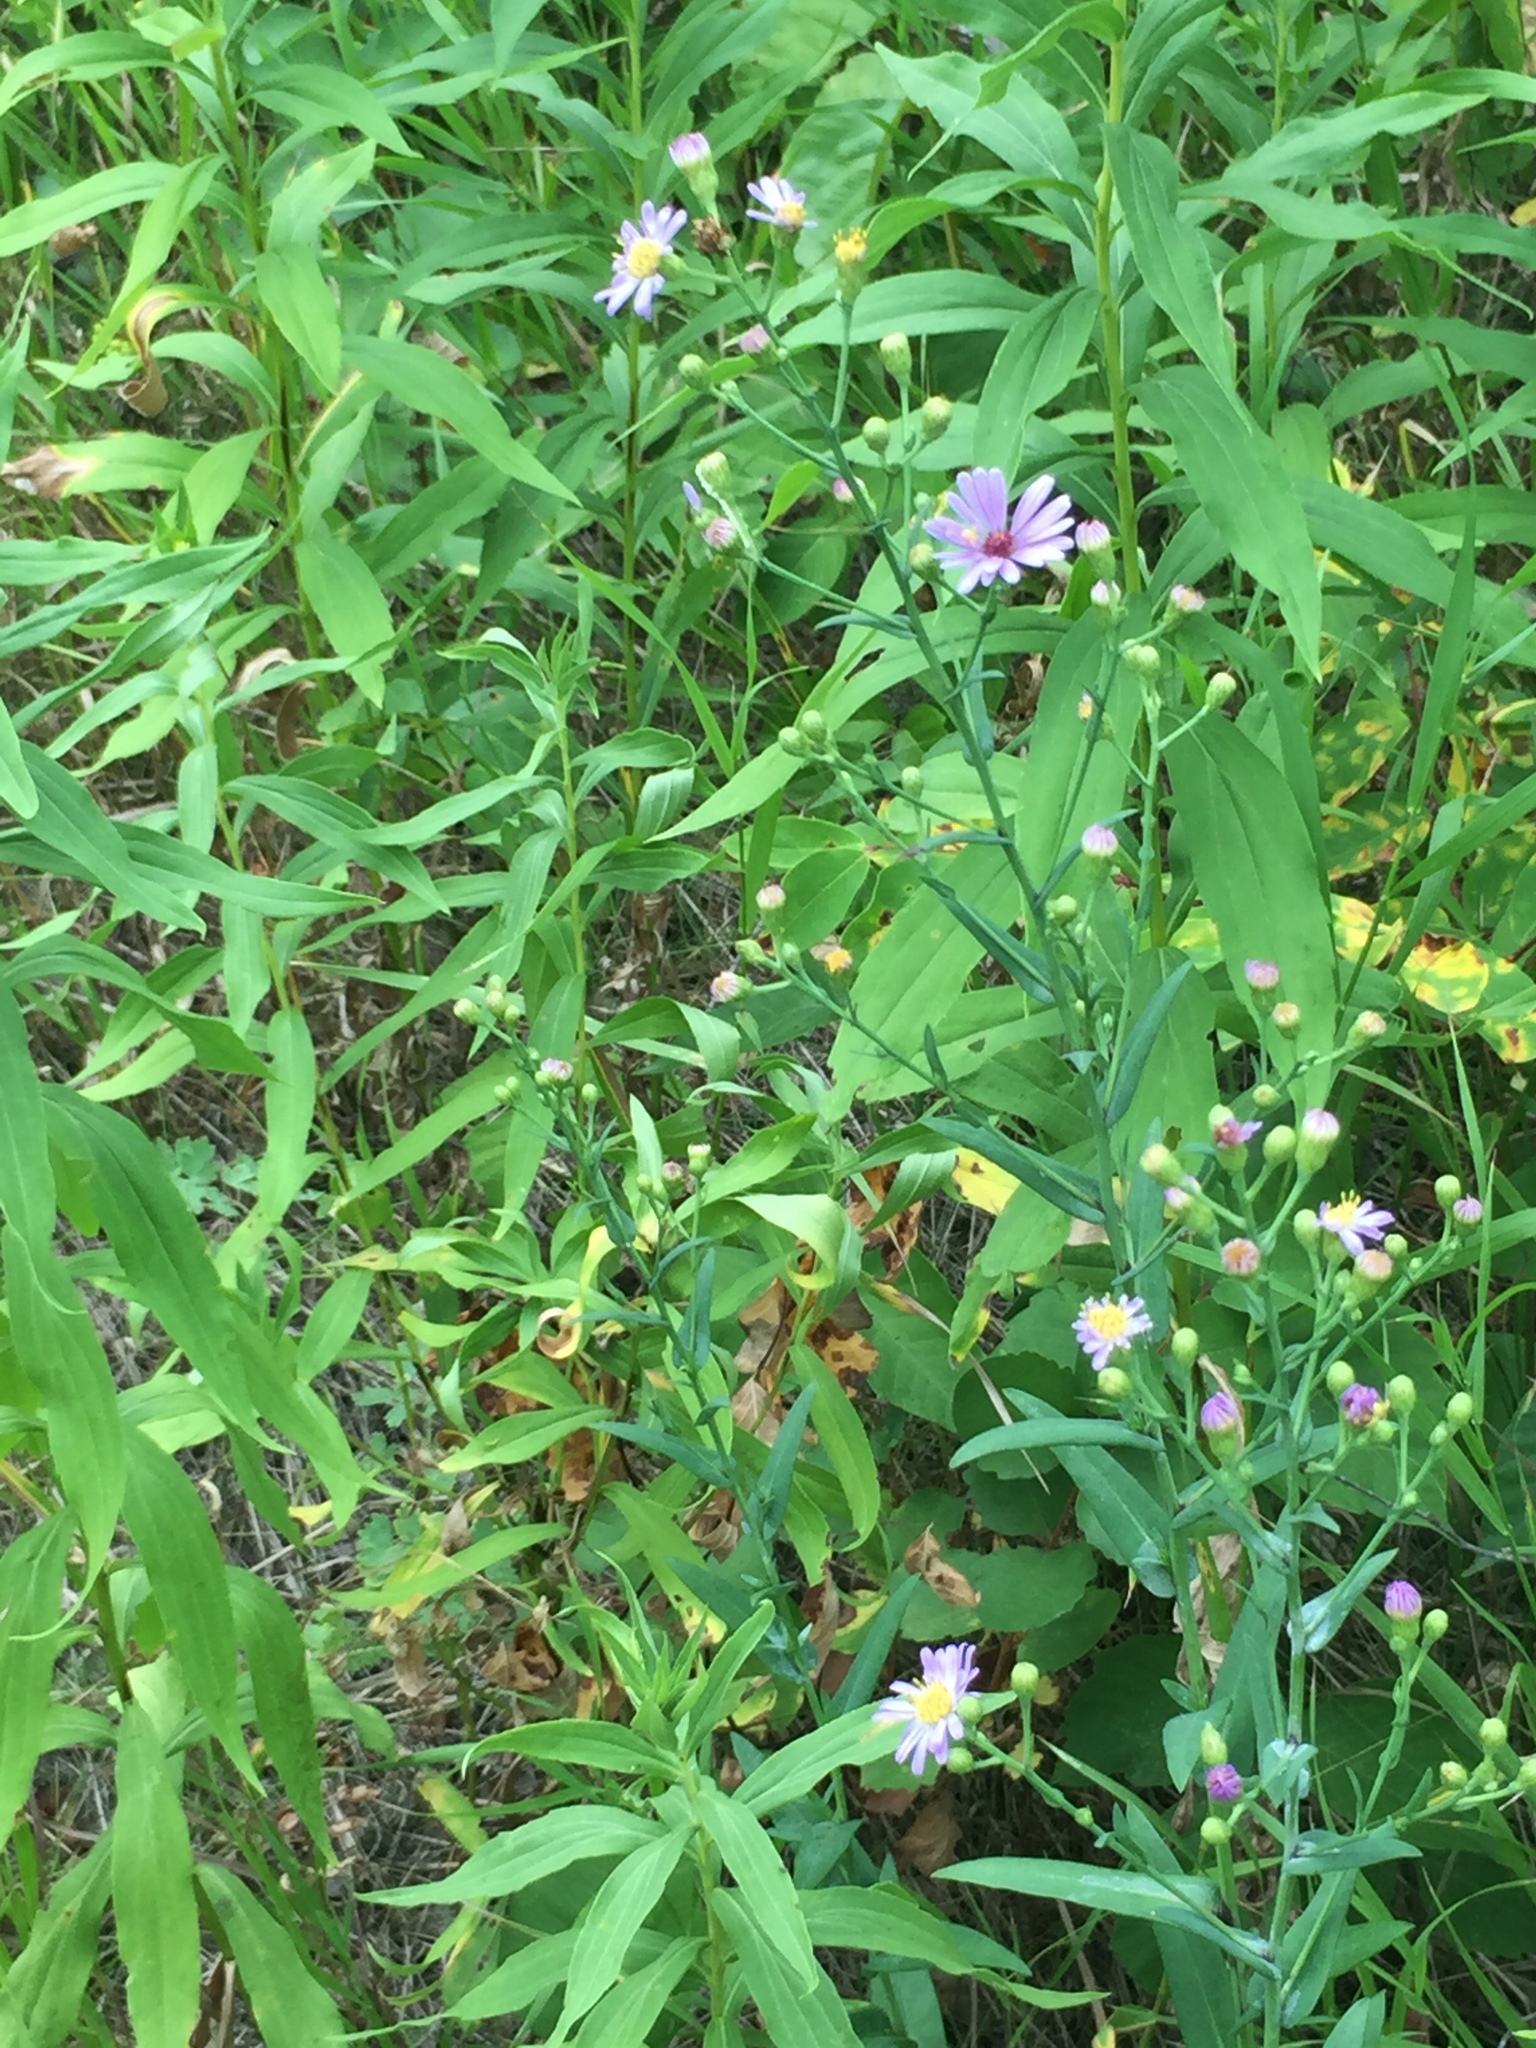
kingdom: Plantae
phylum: Tracheophyta
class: Magnoliopsida
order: Asterales
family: Asteraceae
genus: Symphyotrichum
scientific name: Symphyotrichum laeve
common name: Glaucous aster
